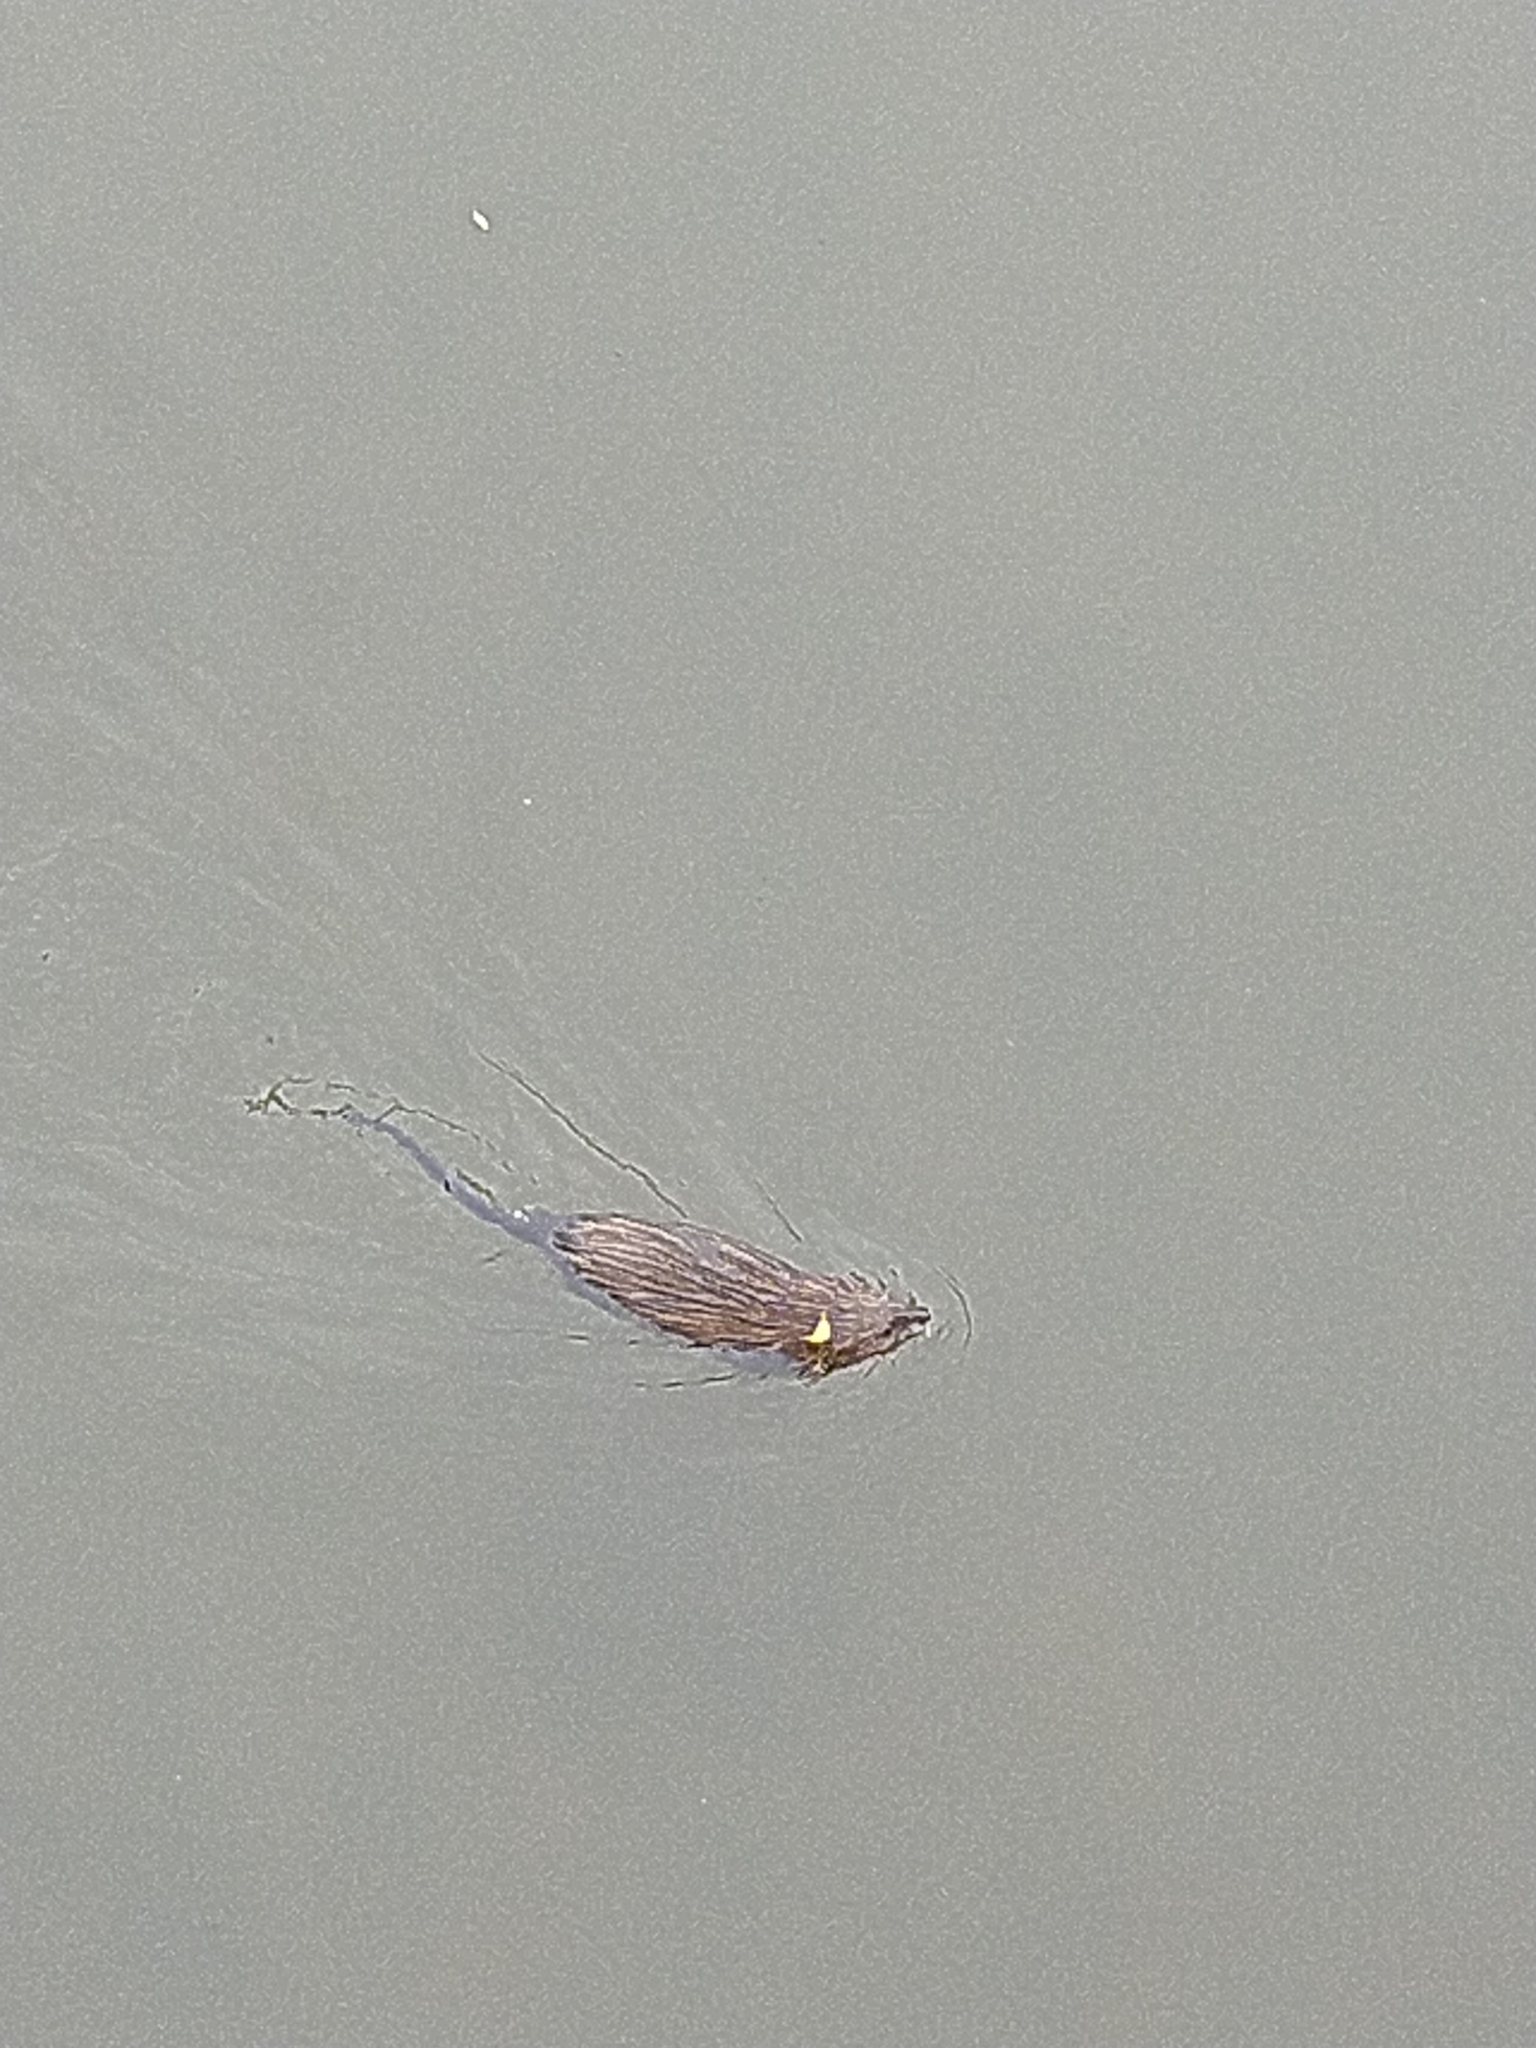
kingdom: Animalia
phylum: Chordata
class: Mammalia
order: Rodentia
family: Cricetidae
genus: Ondatra
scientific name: Ondatra zibethicus
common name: Muskrat
